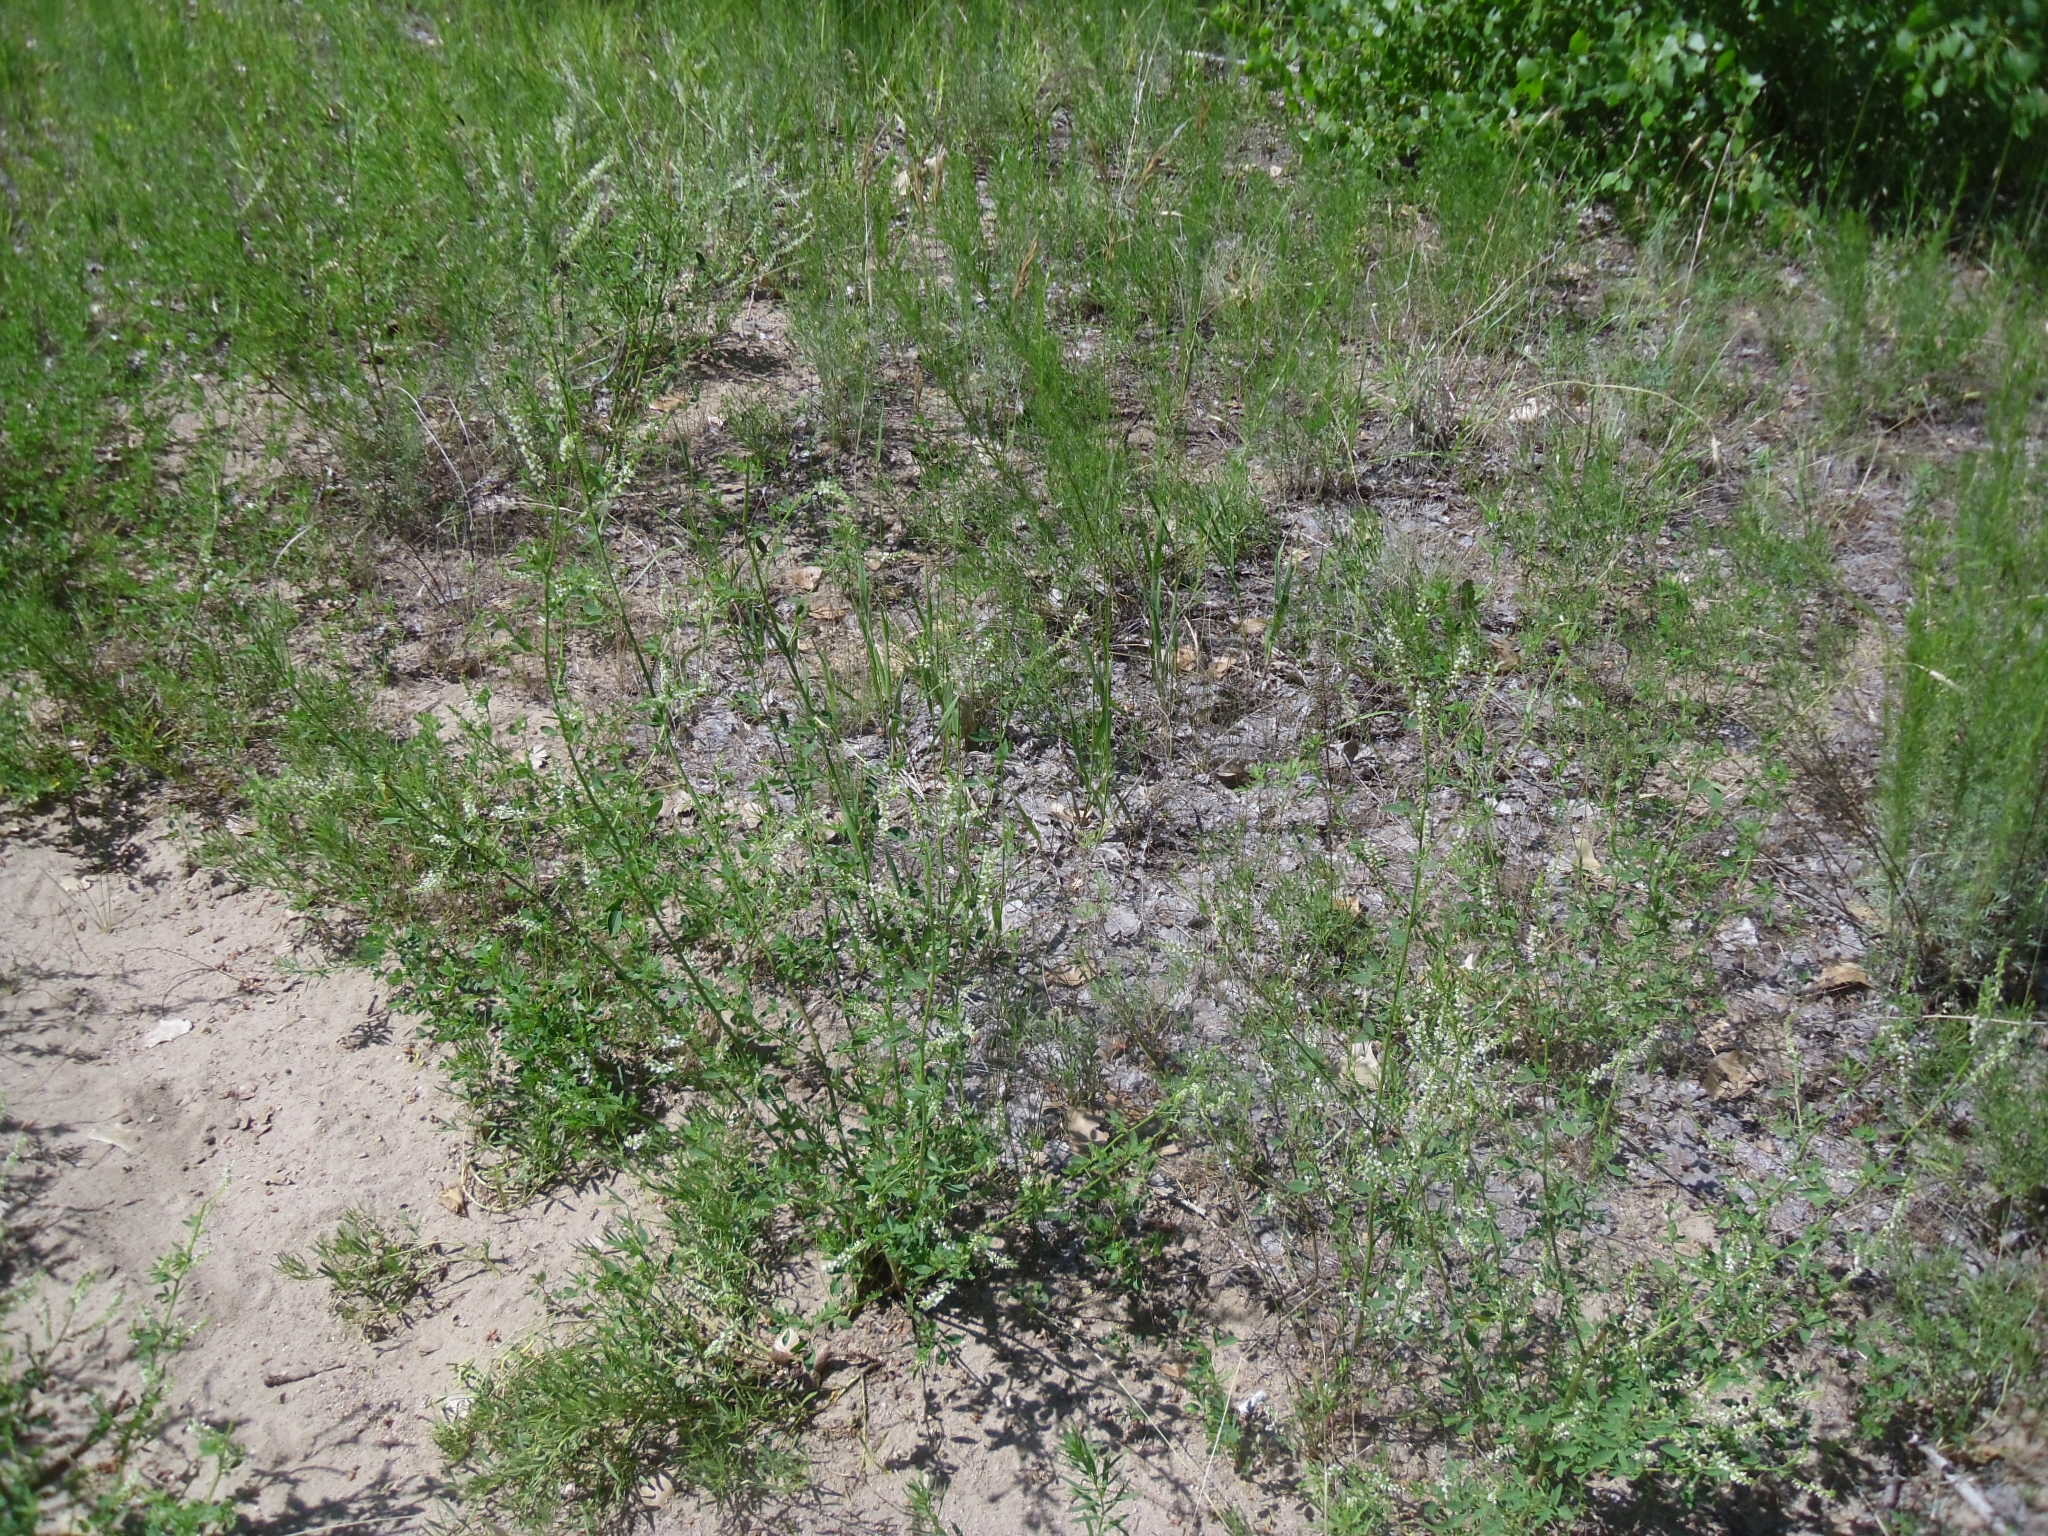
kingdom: Plantae
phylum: Tracheophyta
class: Magnoliopsida
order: Fabales
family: Fabaceae
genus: Melilotus
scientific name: Melilotus albus
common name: White melilot
